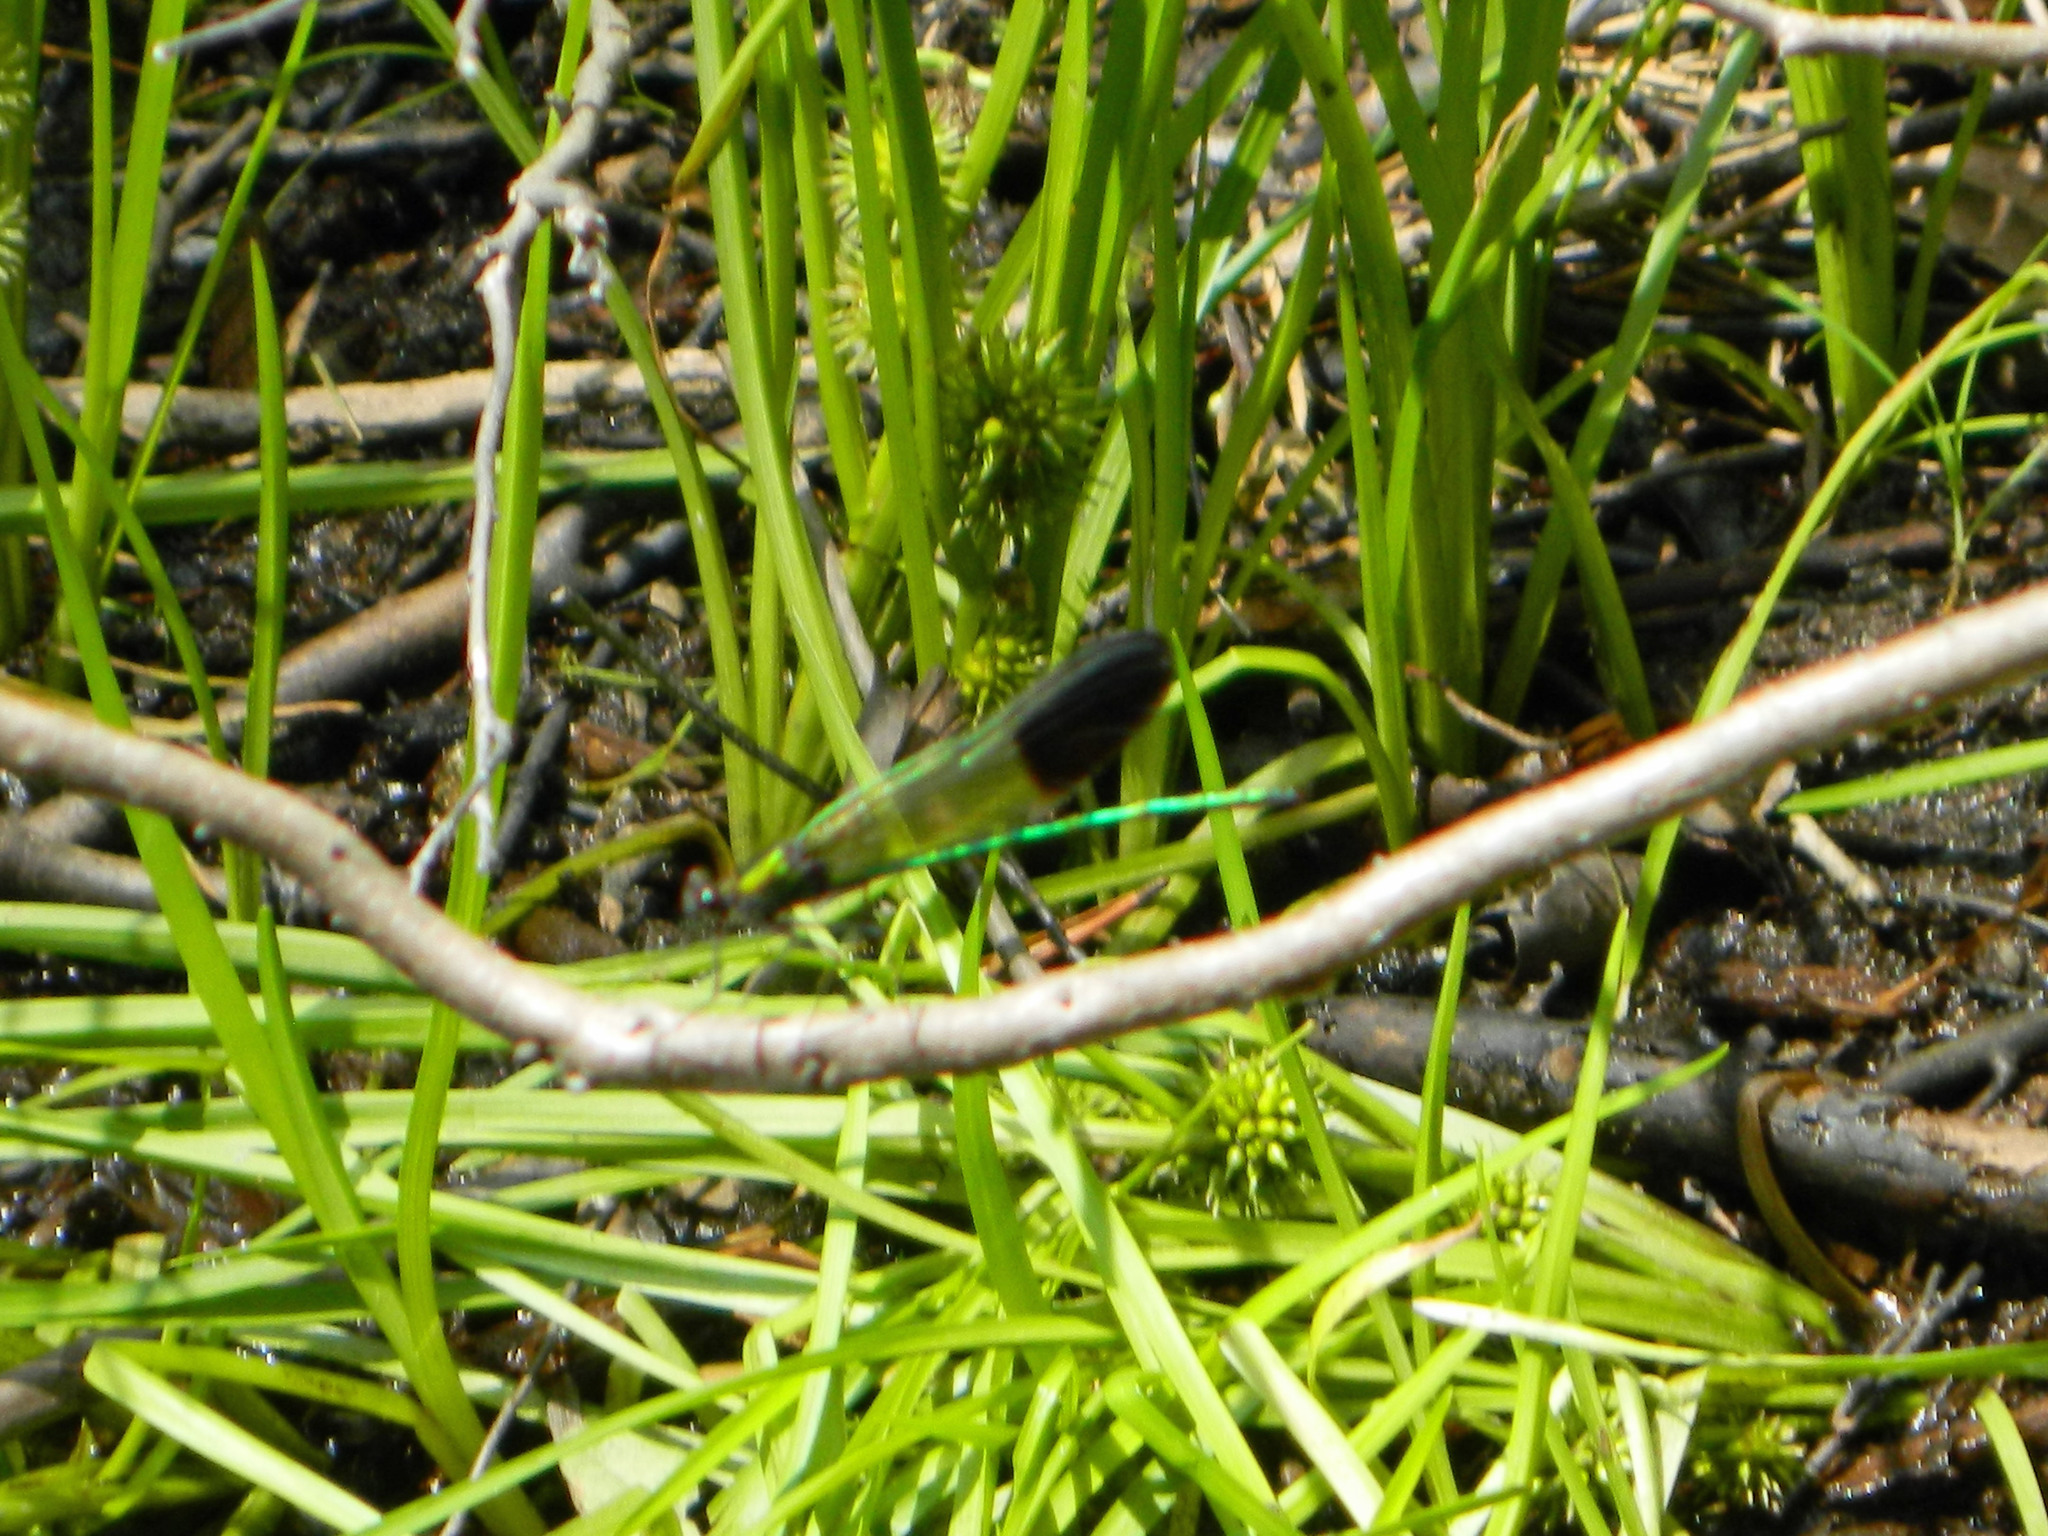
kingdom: Animalia
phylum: Arthropoda
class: Insecta
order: Odonata
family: Calopterygidae
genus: Calopteryx
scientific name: Calopteryx aequabilis
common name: River jewelwing
